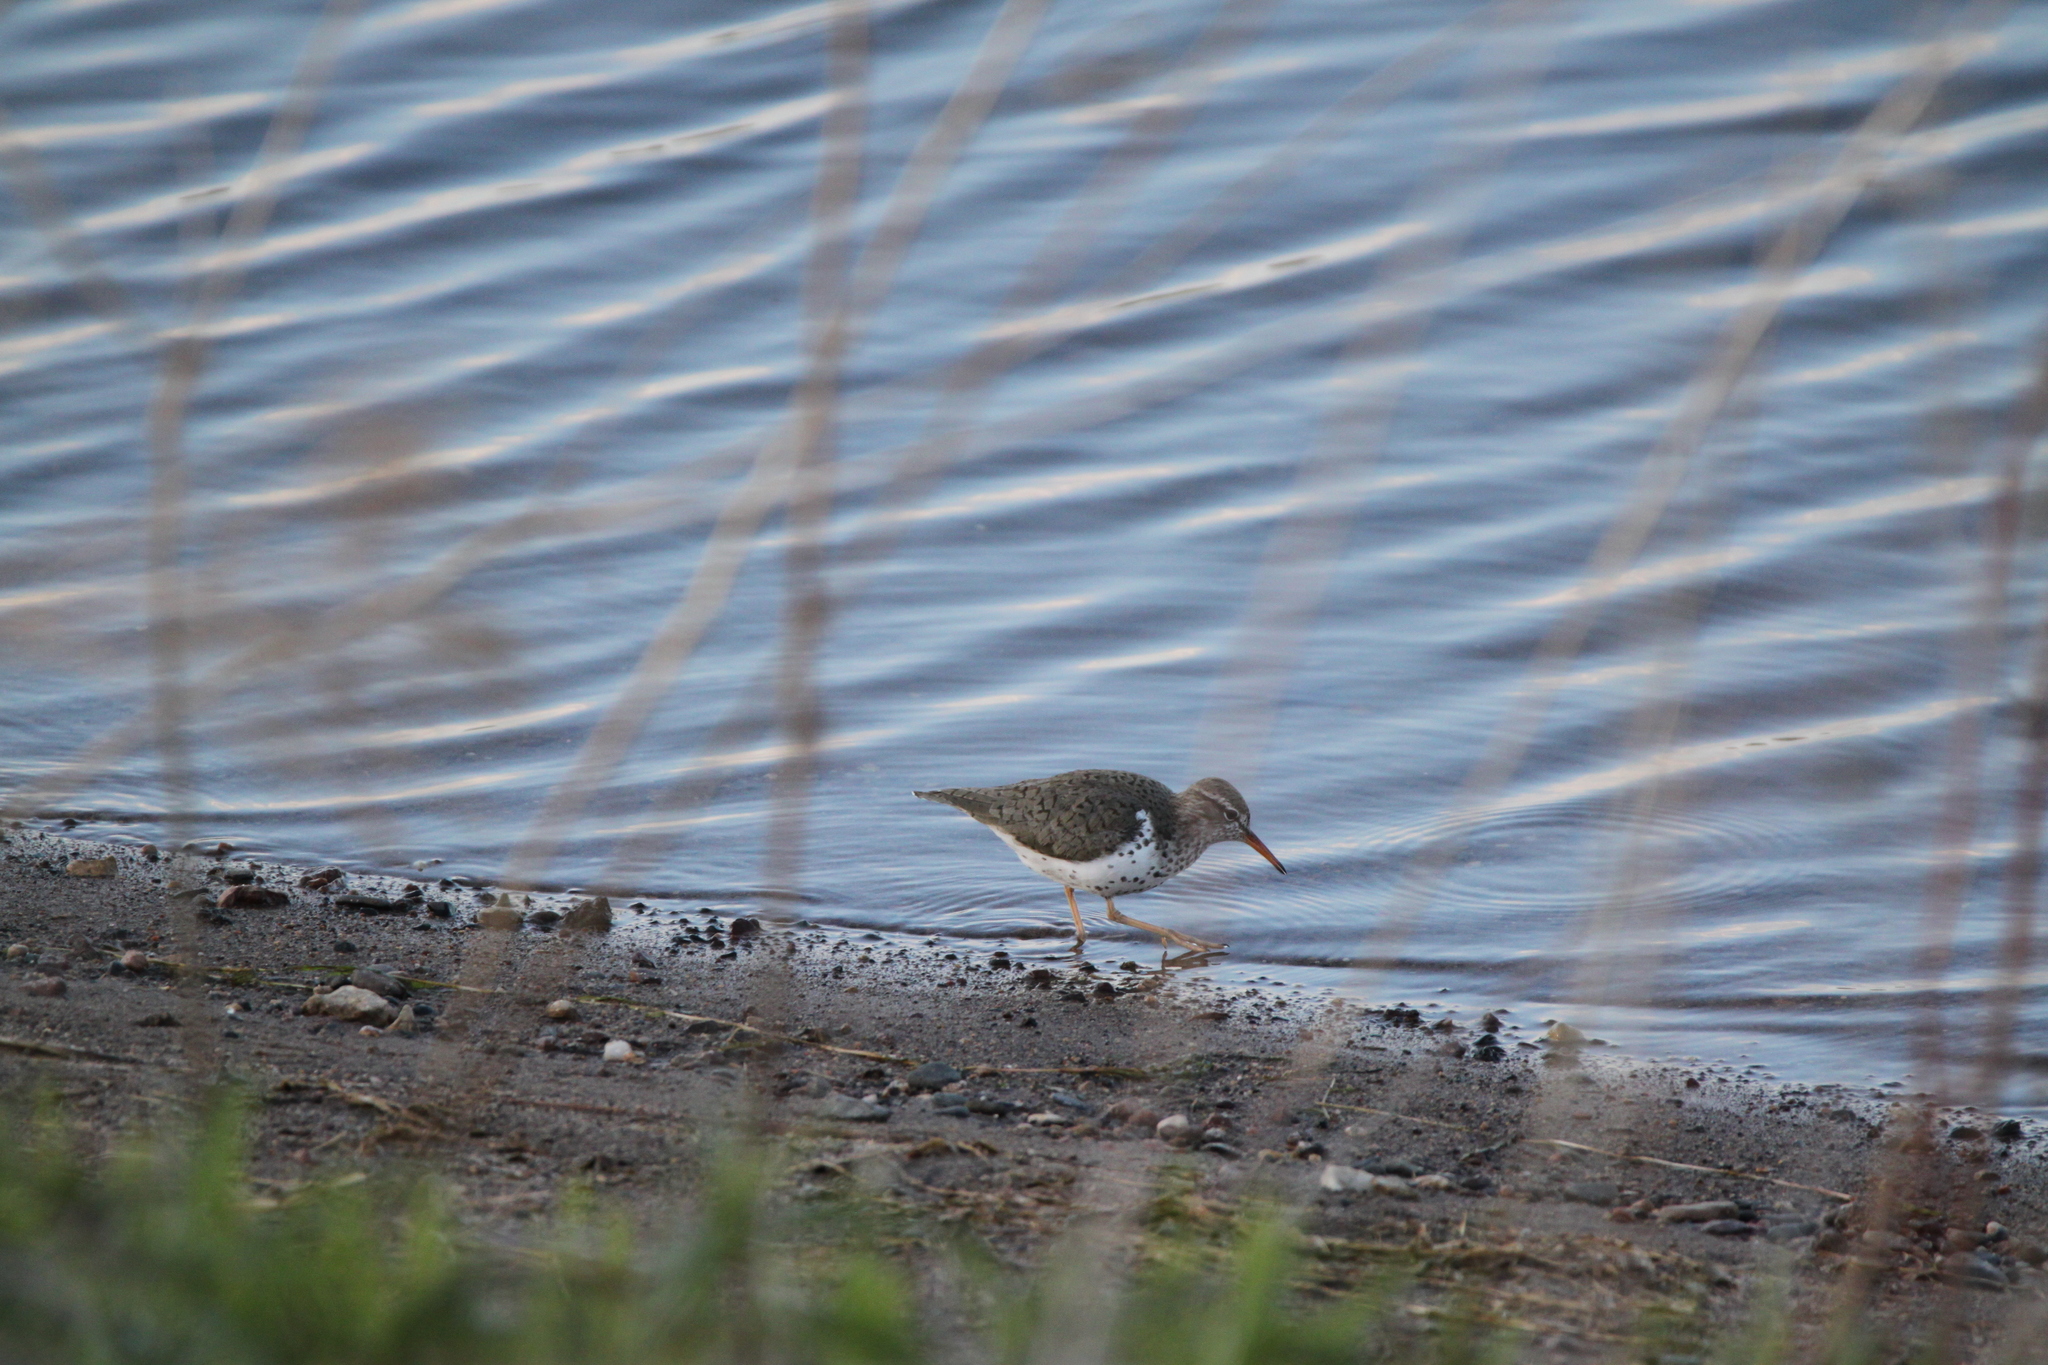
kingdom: Animalia
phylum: Chordata
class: Aves
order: Charadriiformes
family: Scolopacidae
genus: Actitis
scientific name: Actitis macularius
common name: Spotted sandpiper
